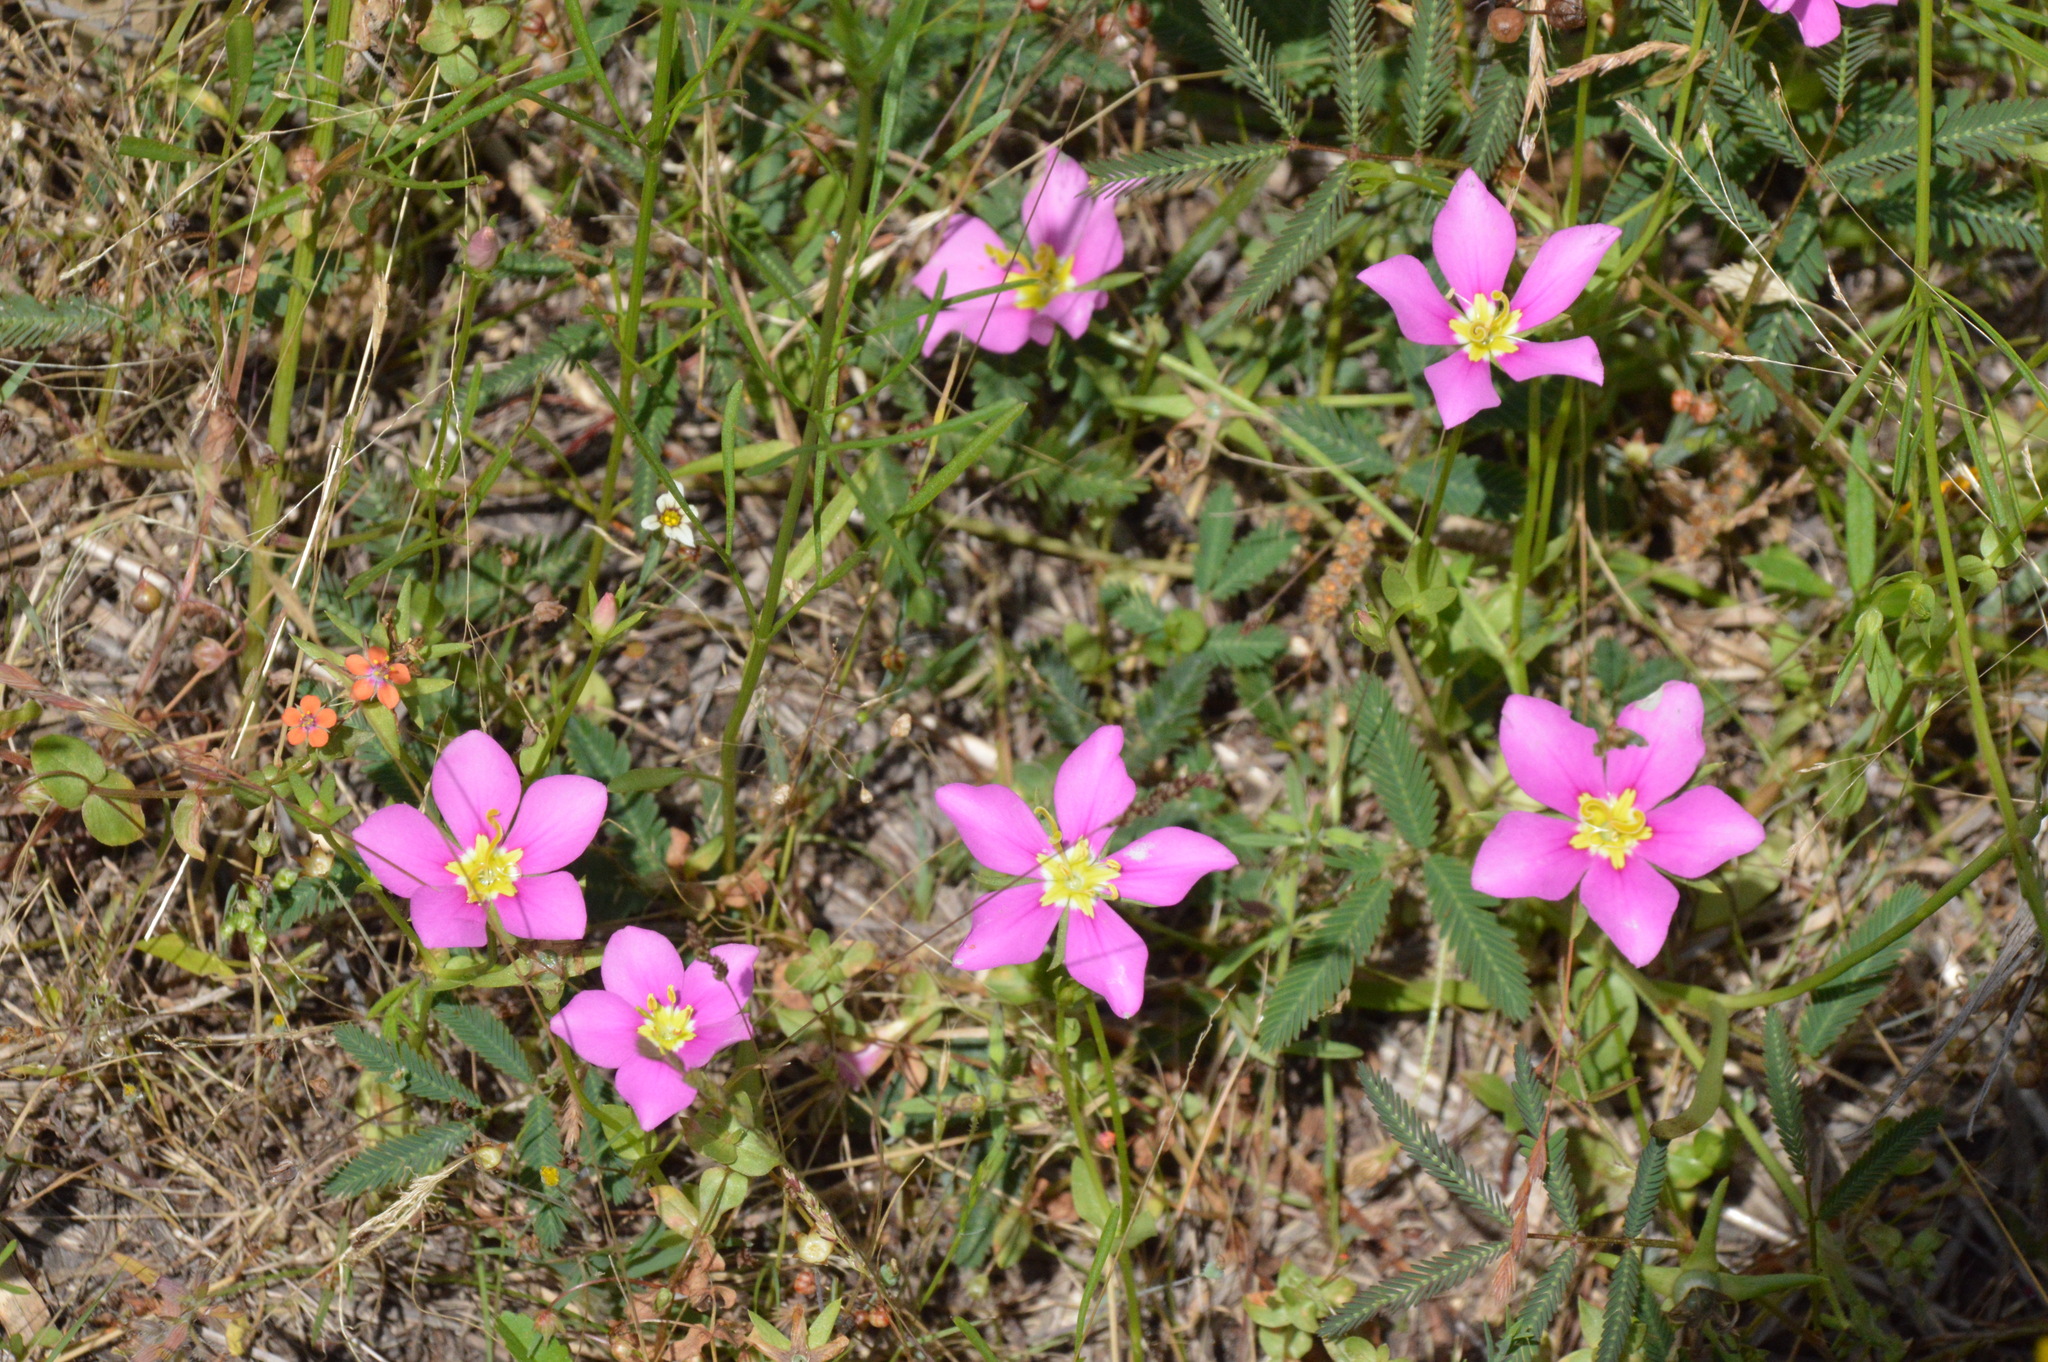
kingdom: Plantae
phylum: Tracheophyta
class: Magnoliopsida
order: Gentianales
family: Gentianaceae
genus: Sabatia
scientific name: Sabatia campestris
